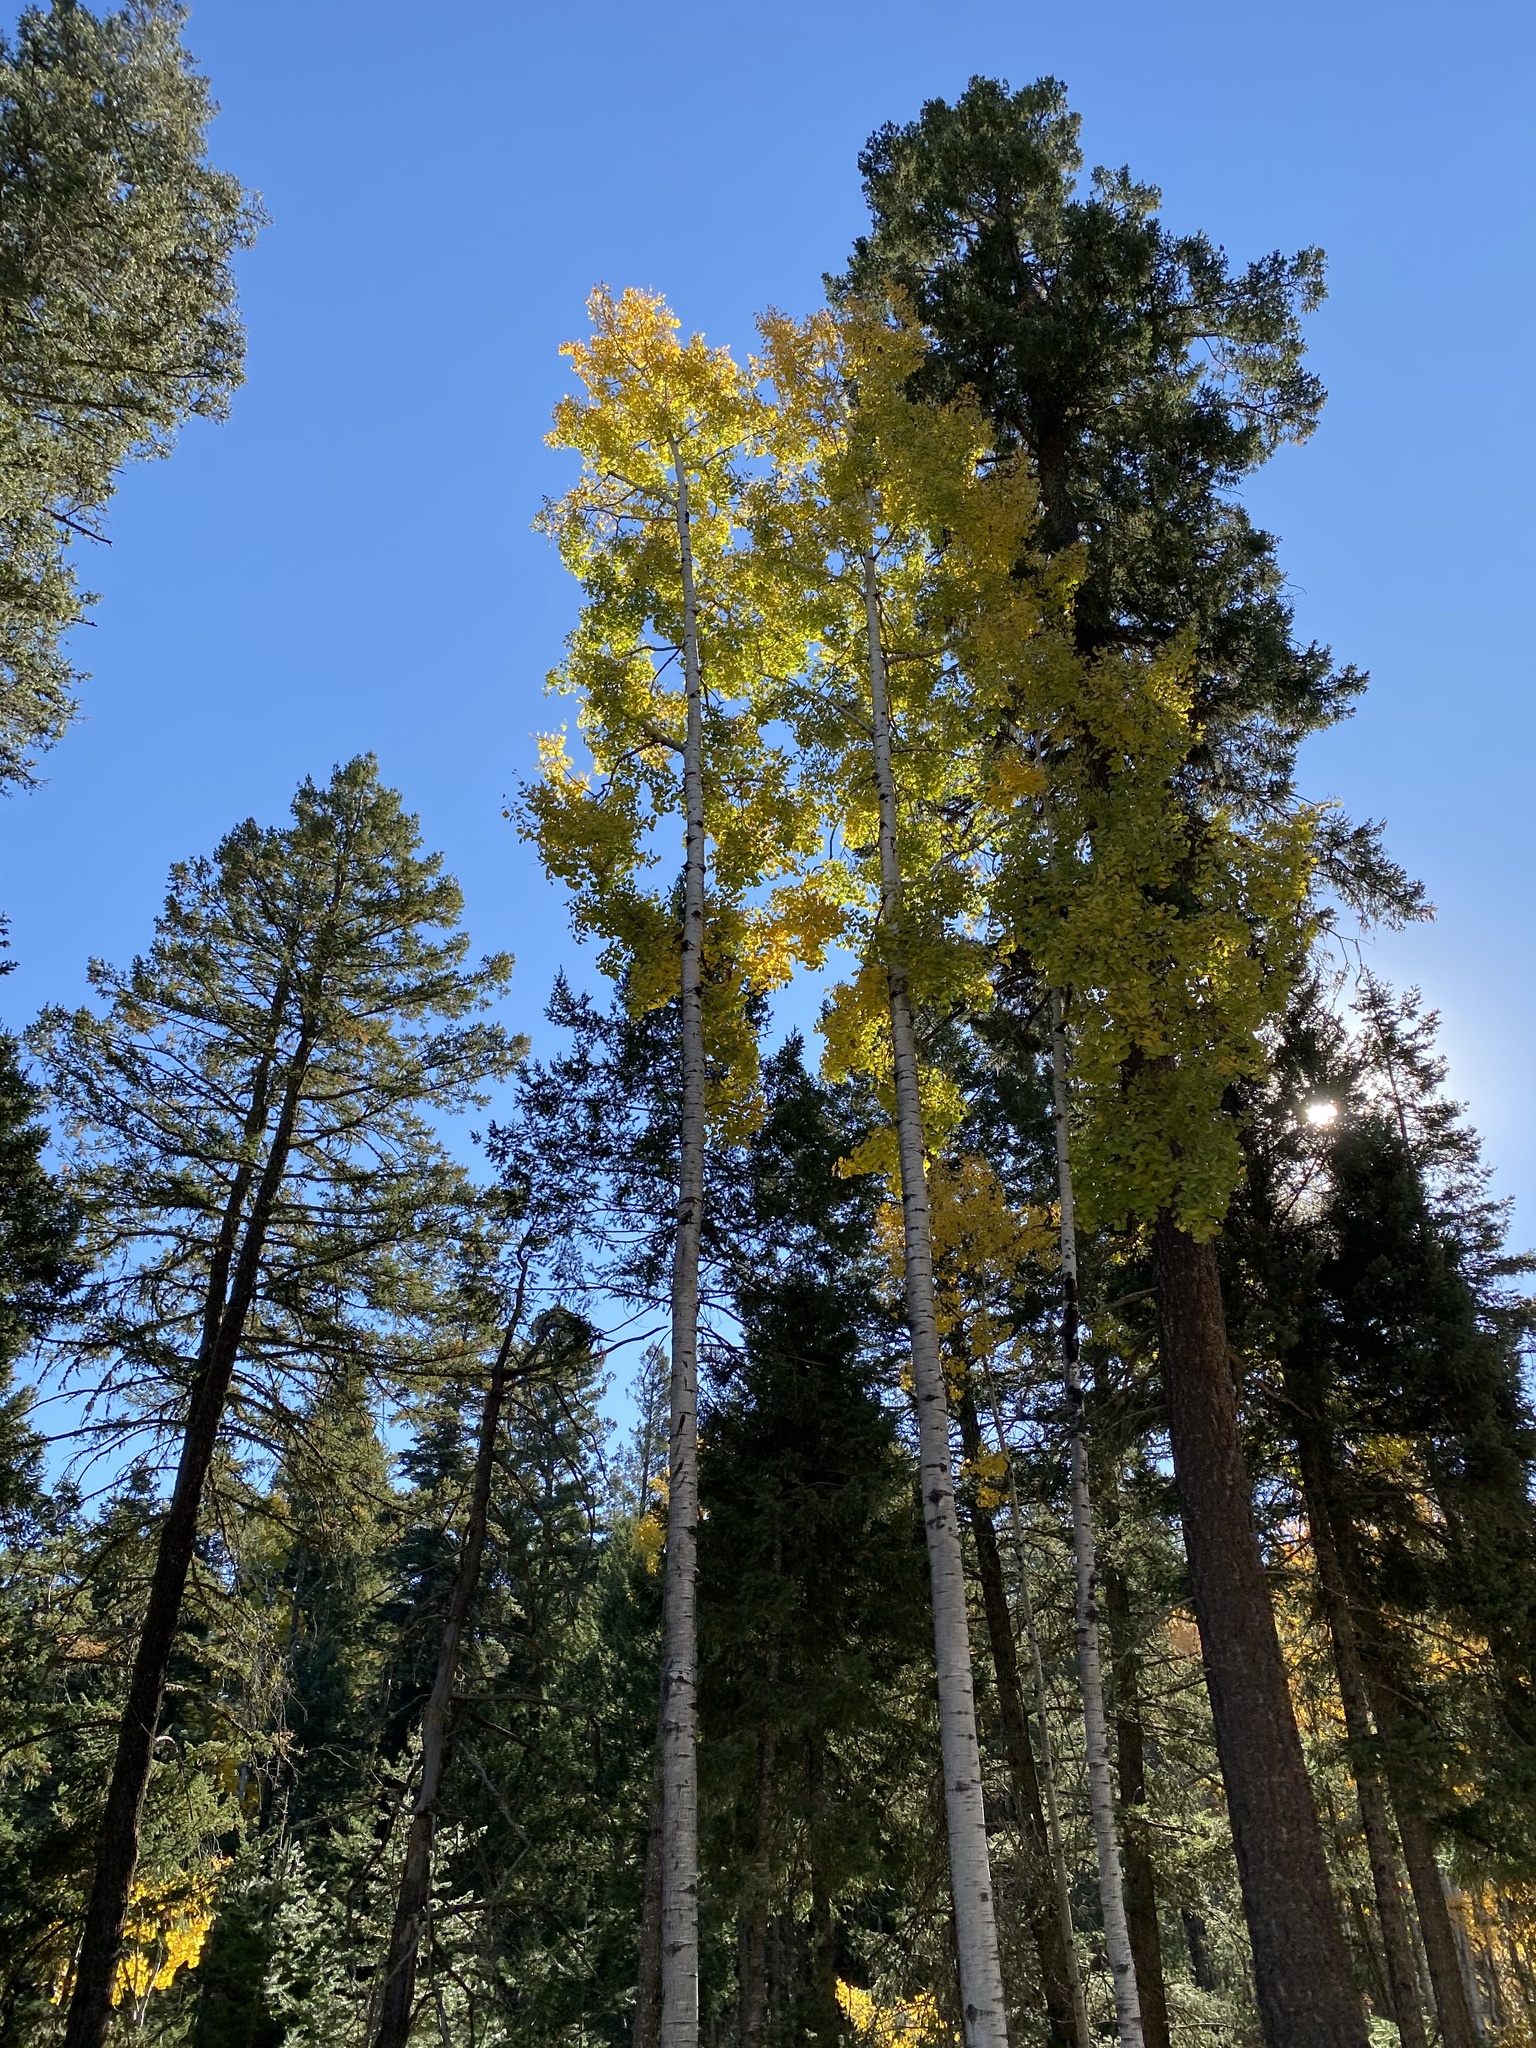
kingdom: Plantae
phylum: Tracheophyta
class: Magnoliopsida
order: Malpighiales
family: Salicaceae
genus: Populus
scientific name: Populus tremuloides
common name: Quaking aspen
